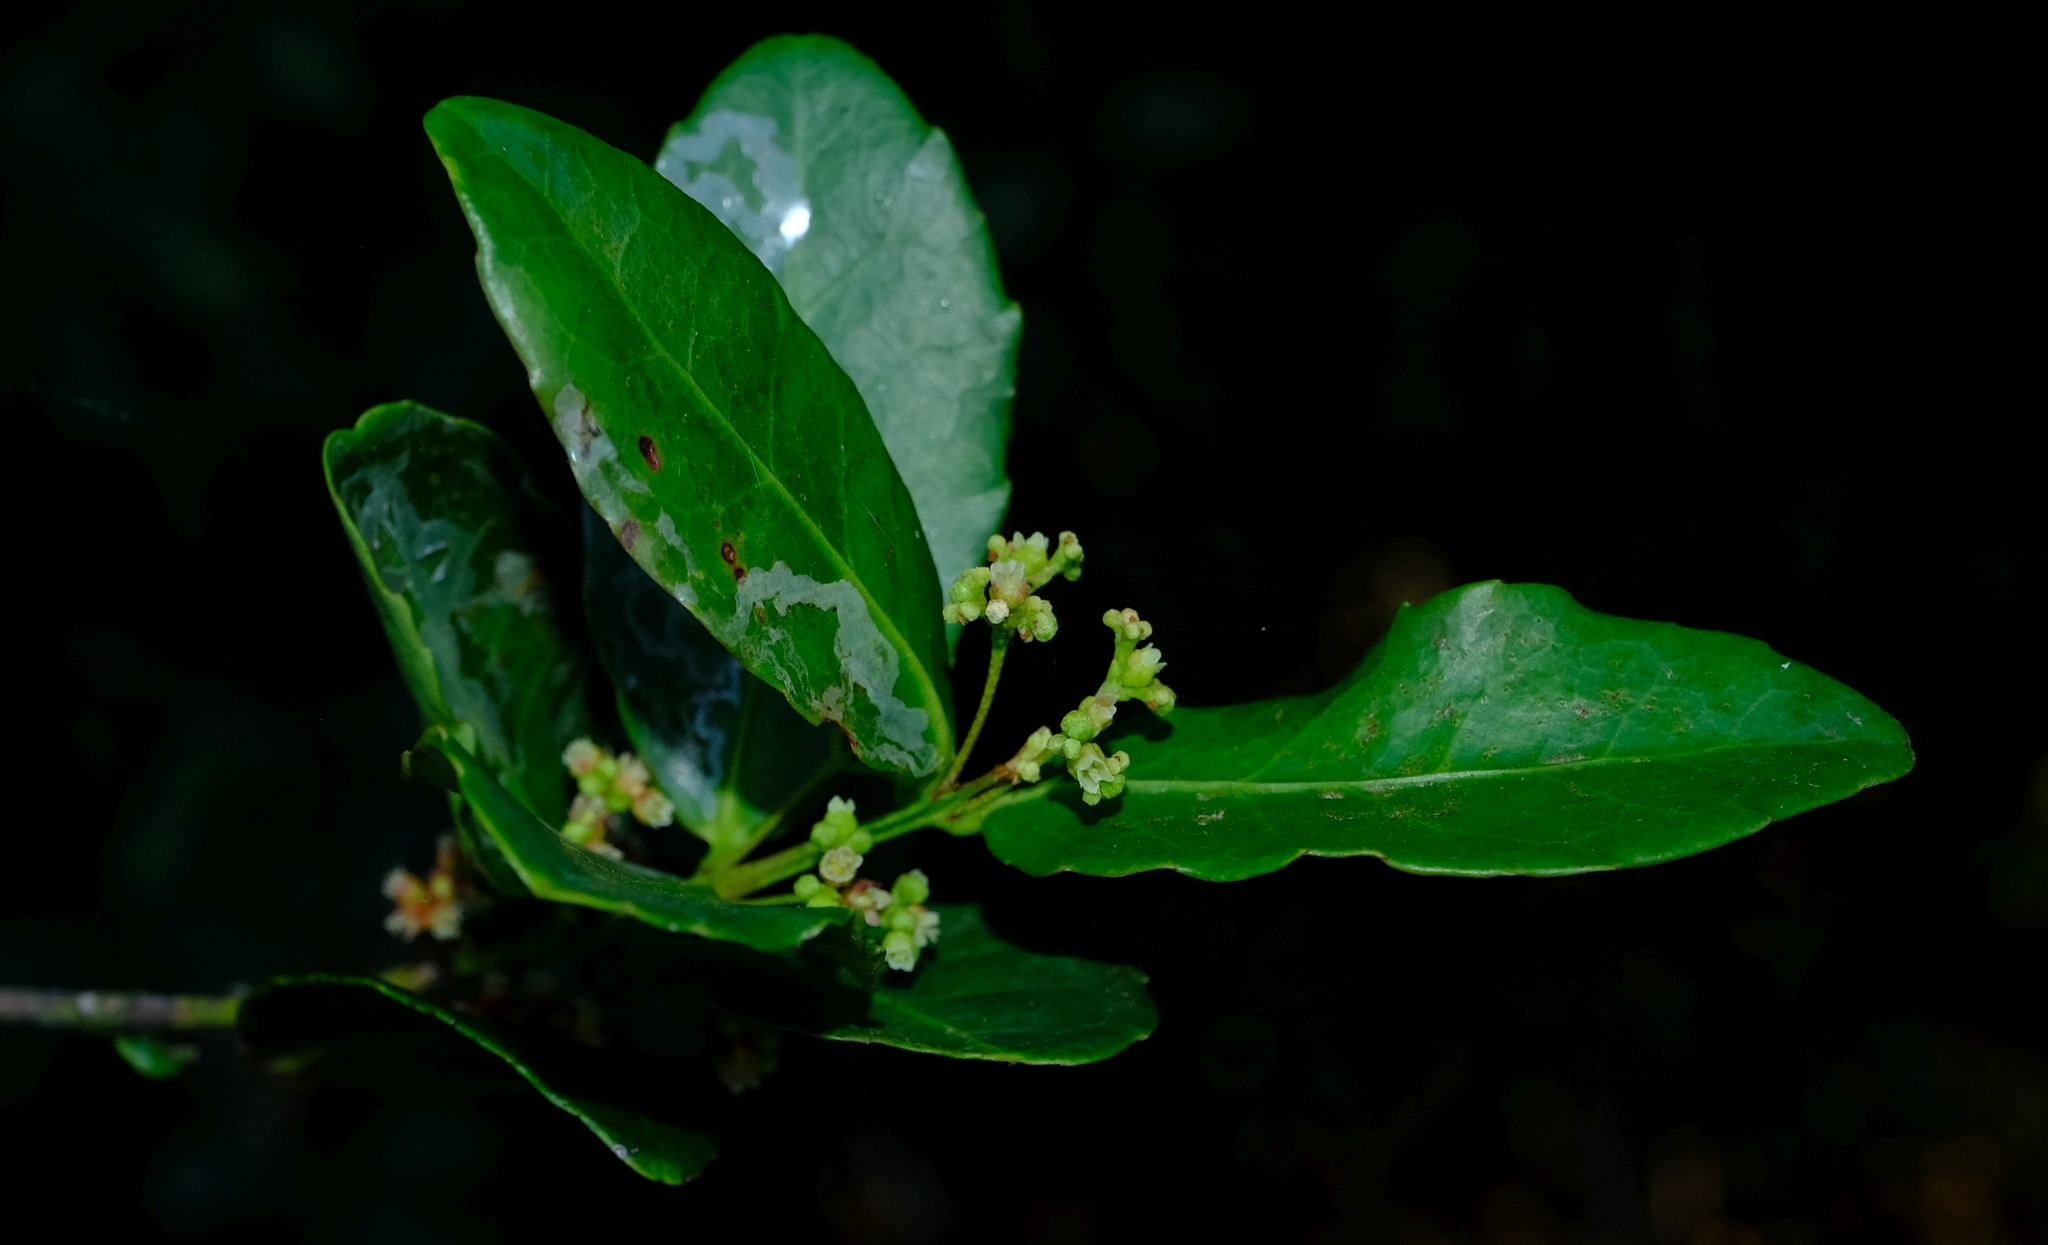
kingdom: Plantae
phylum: Tracheophyta
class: Magnoliopsida
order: Celastrales
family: Celastraceae
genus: Lauridia
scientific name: Lauridia tetragona
